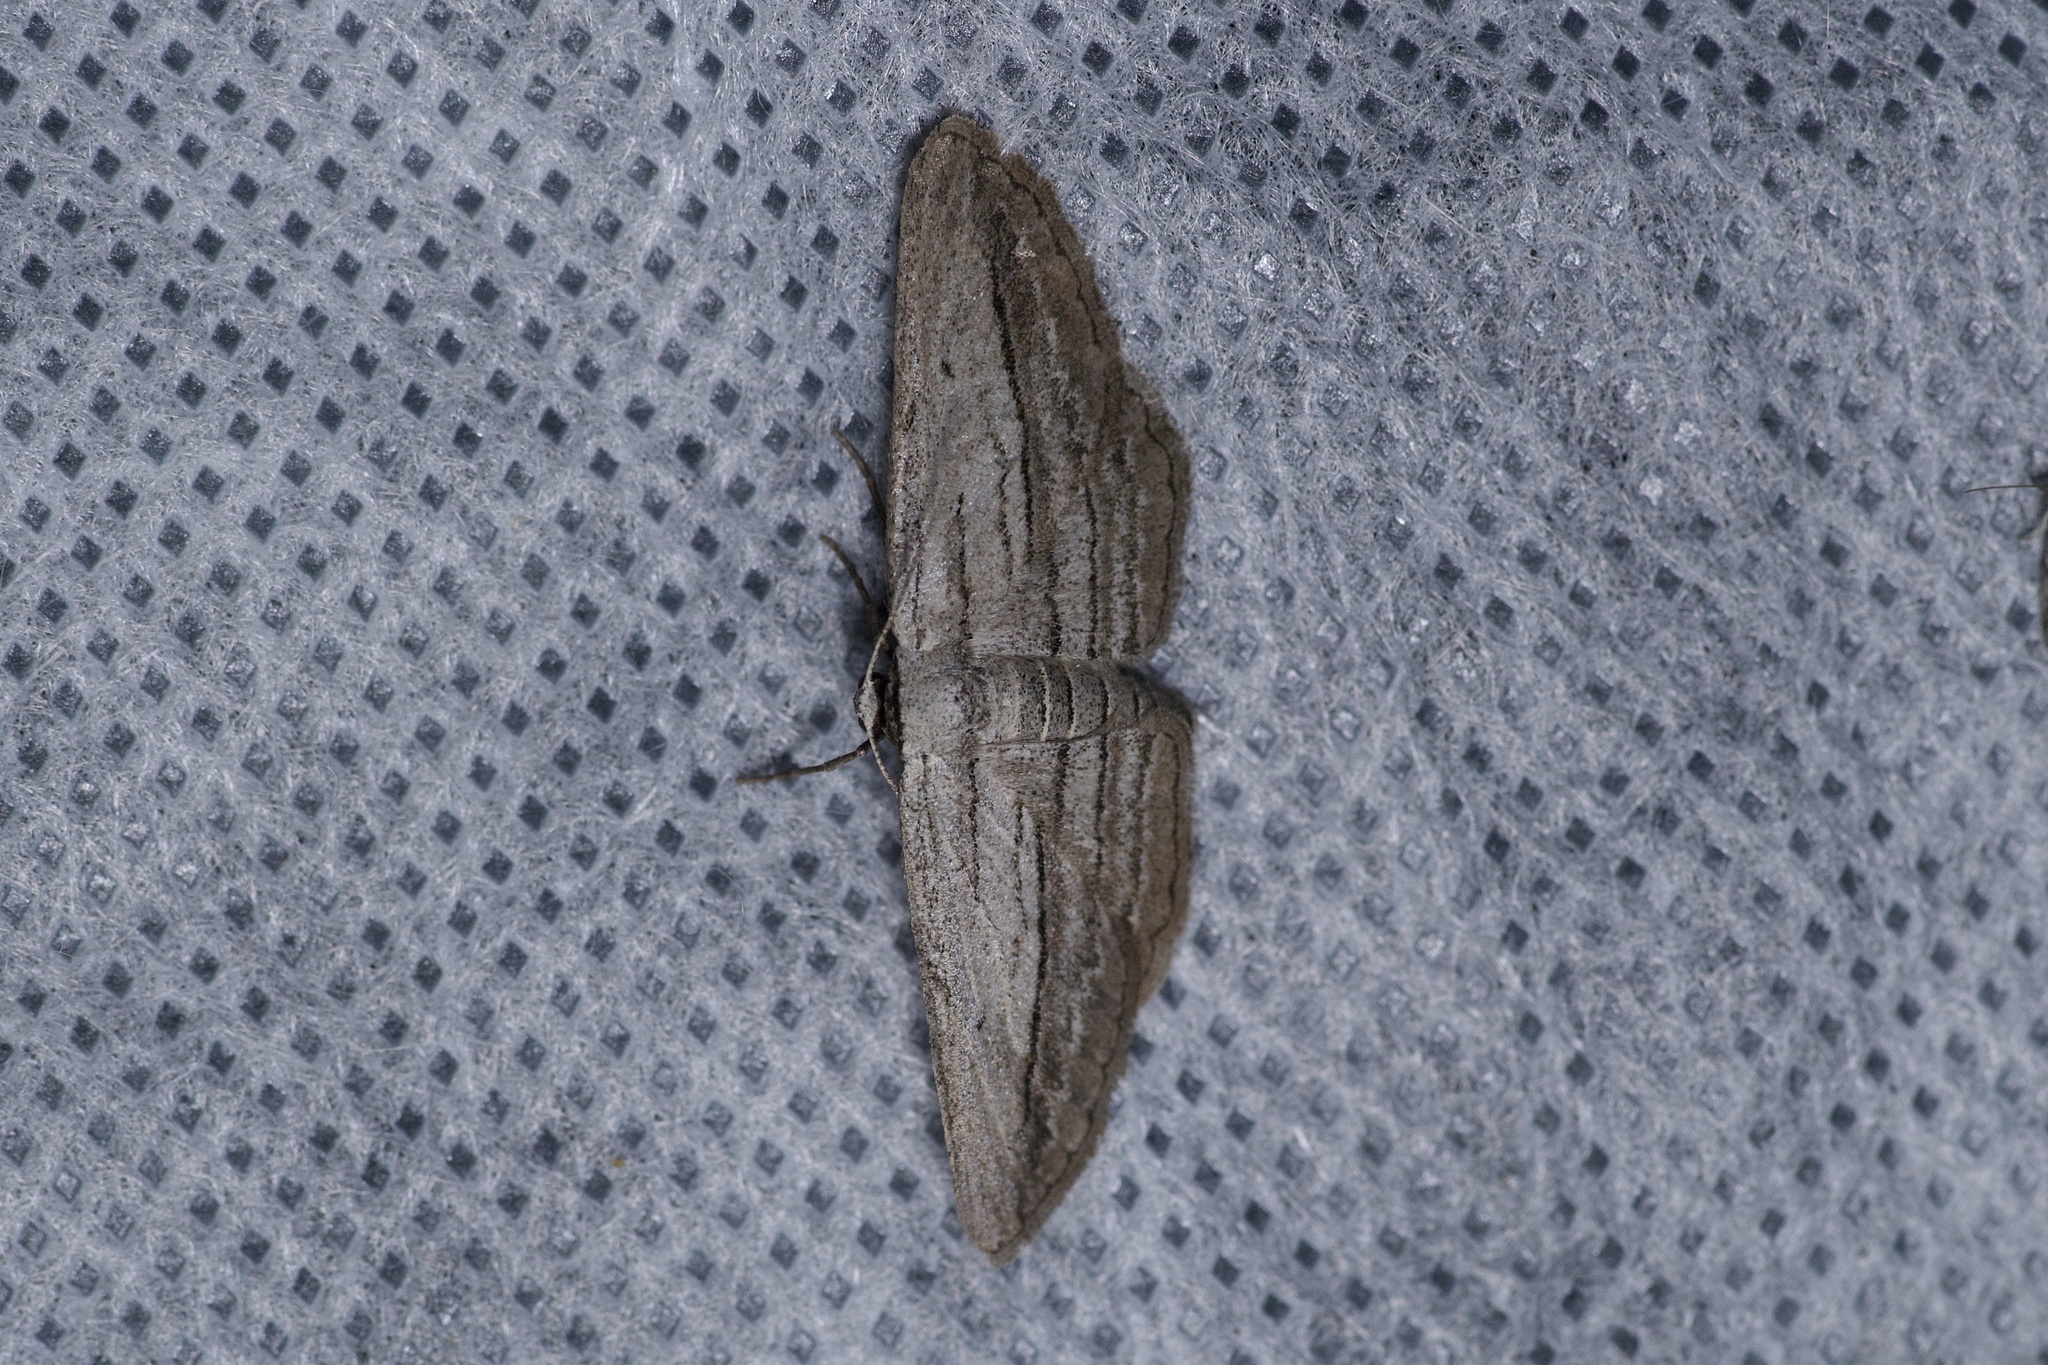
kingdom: Animalia
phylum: Arthropoda
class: Insecta
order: Lepidoptera
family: Geometridae
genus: Glena
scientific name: Glena quinquelinearia
